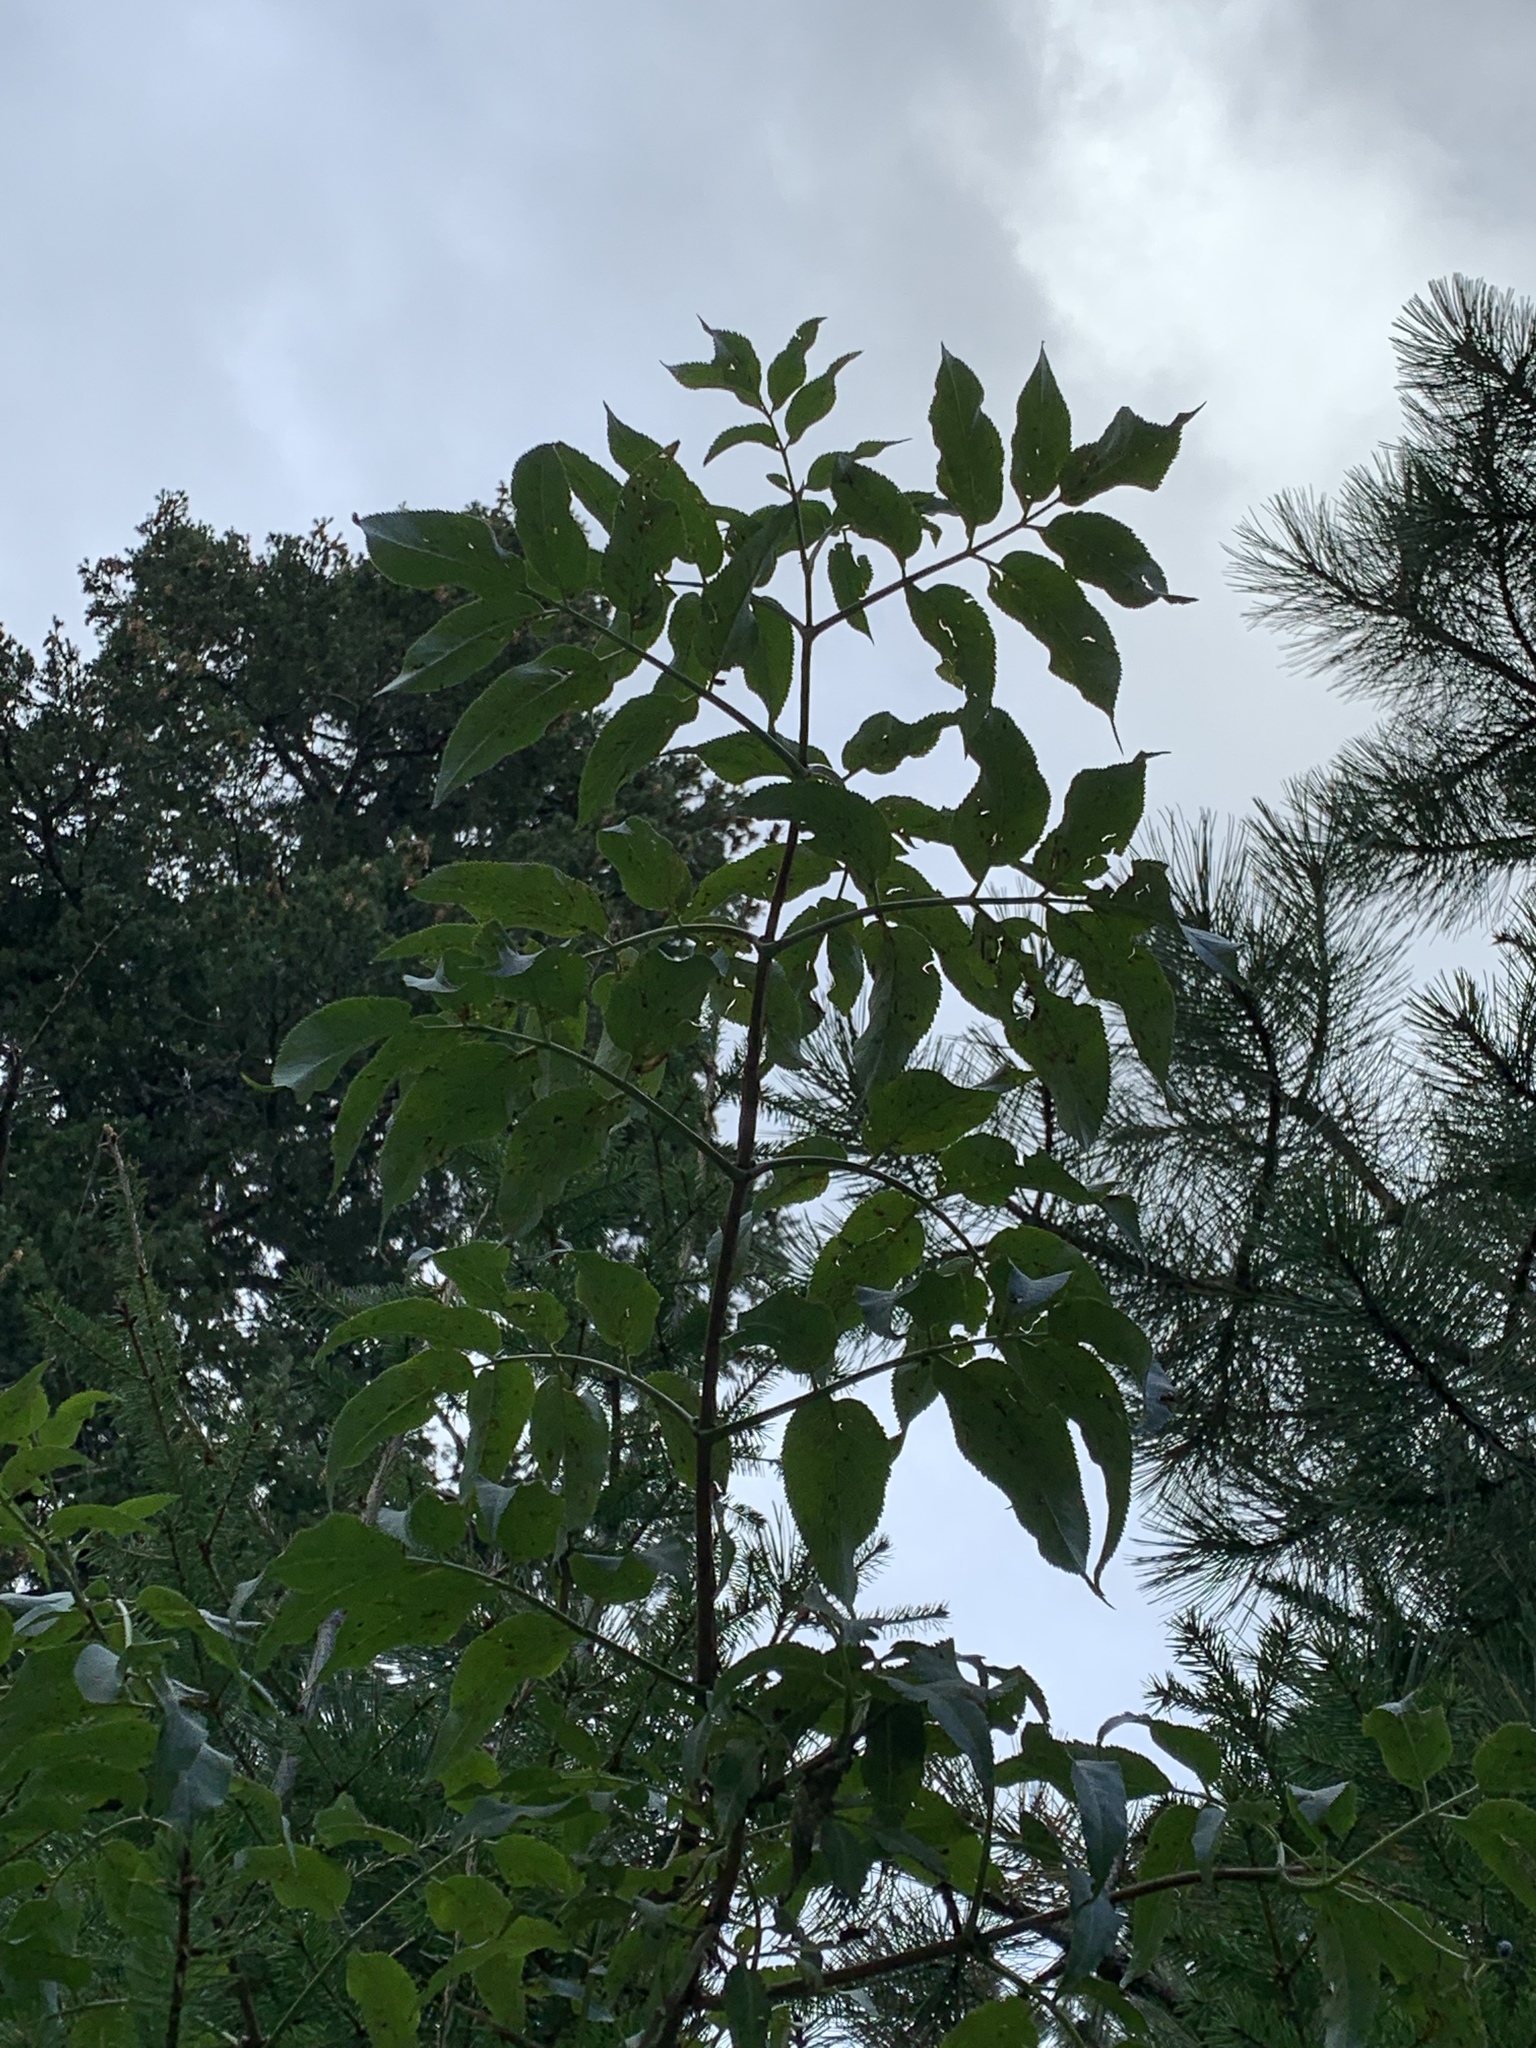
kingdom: Plantae
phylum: Tracheophyta
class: Magnoliopsida
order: Dipsacales
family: Viburnaceae
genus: Sambucus
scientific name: Sambucus cerulea
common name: Blue elder
